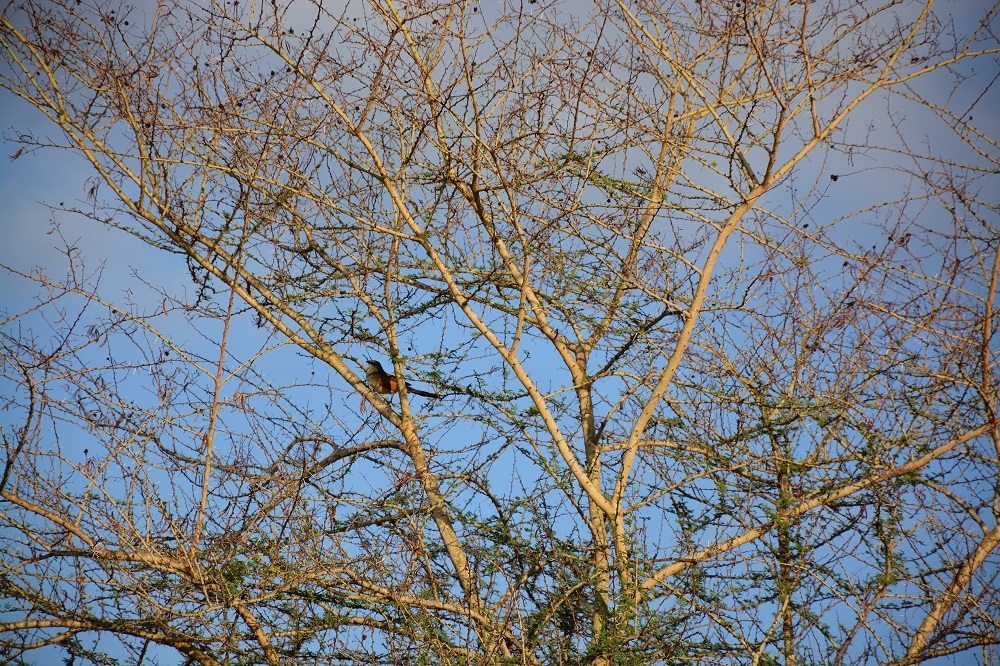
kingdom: Animalia
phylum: Chordata
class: Aves
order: Cuculiformes
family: Cuculidae
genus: Centropus
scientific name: Centropus superciliosus
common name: White-browed coucal
